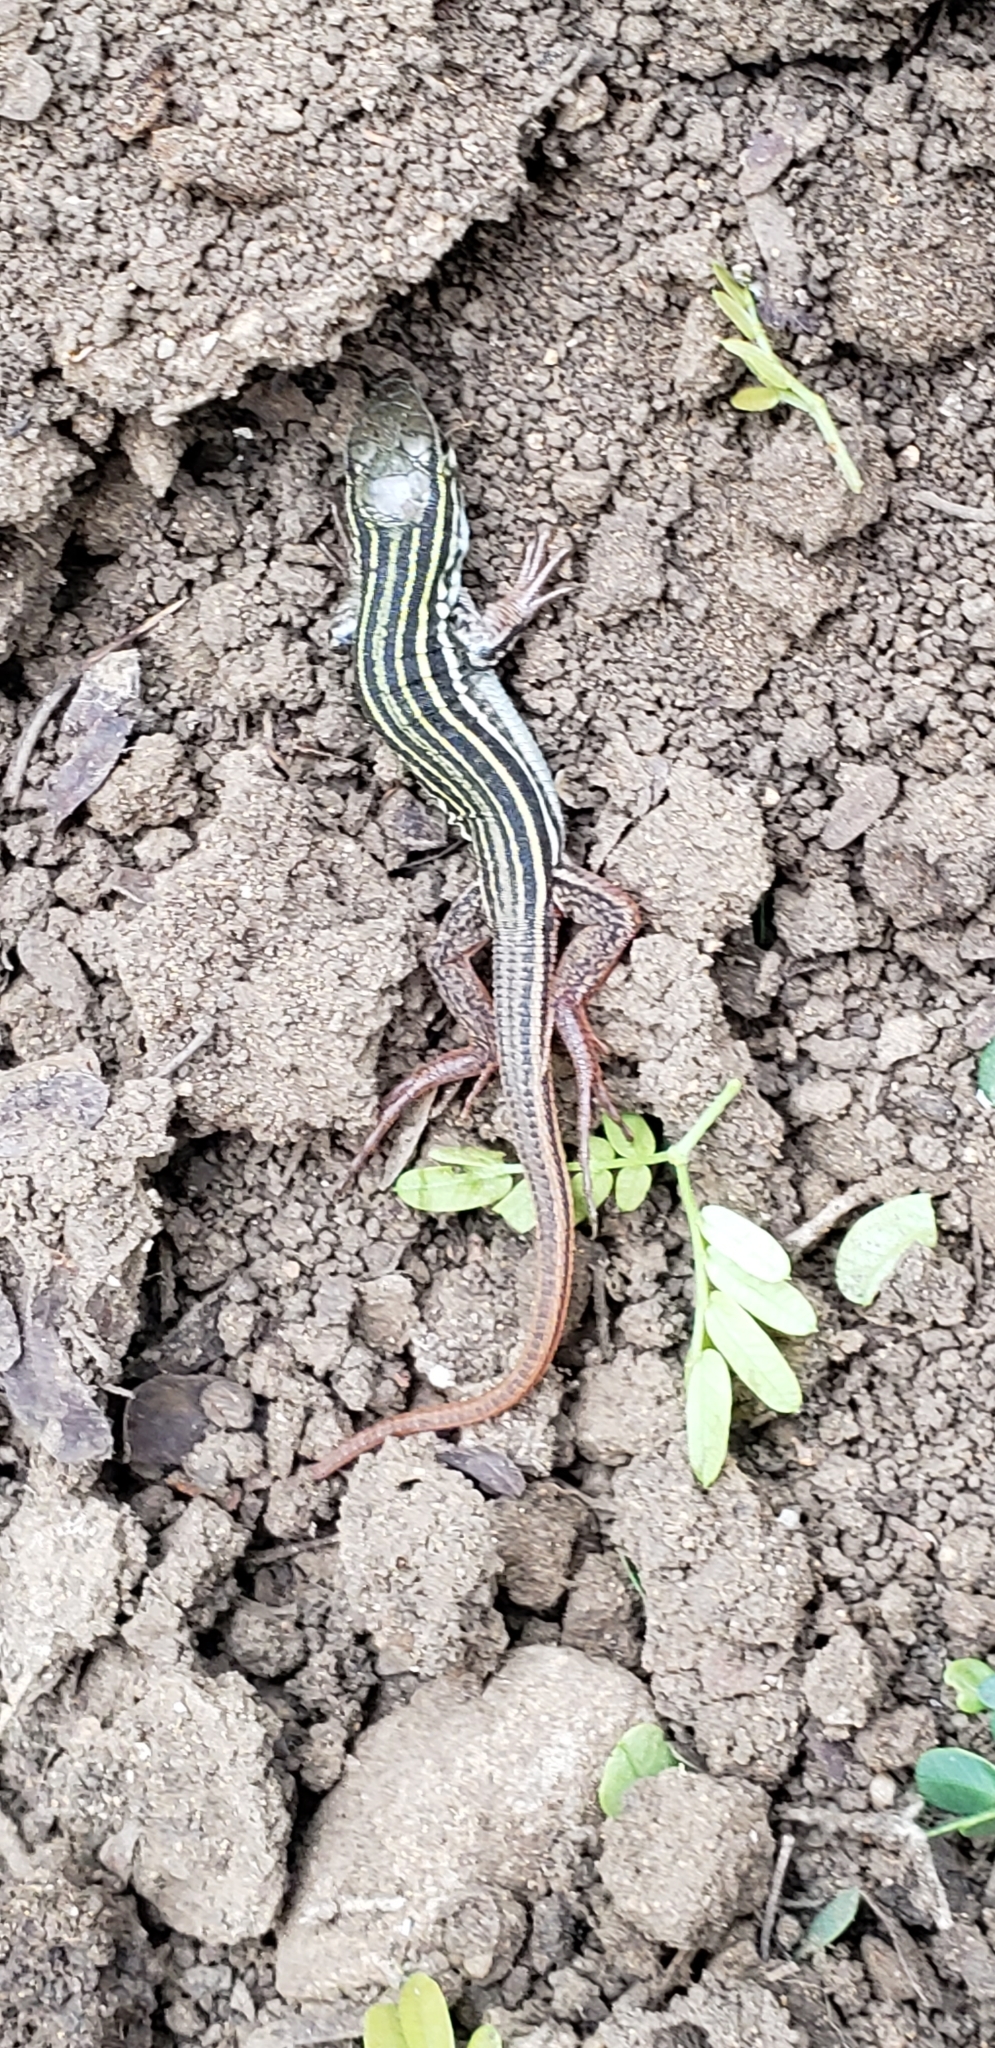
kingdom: Animalia
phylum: Chordata
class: Squamata
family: Teiidae
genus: Aspidoscelis
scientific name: Aspidoscelis gularis
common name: Eastern spotted whiptail
